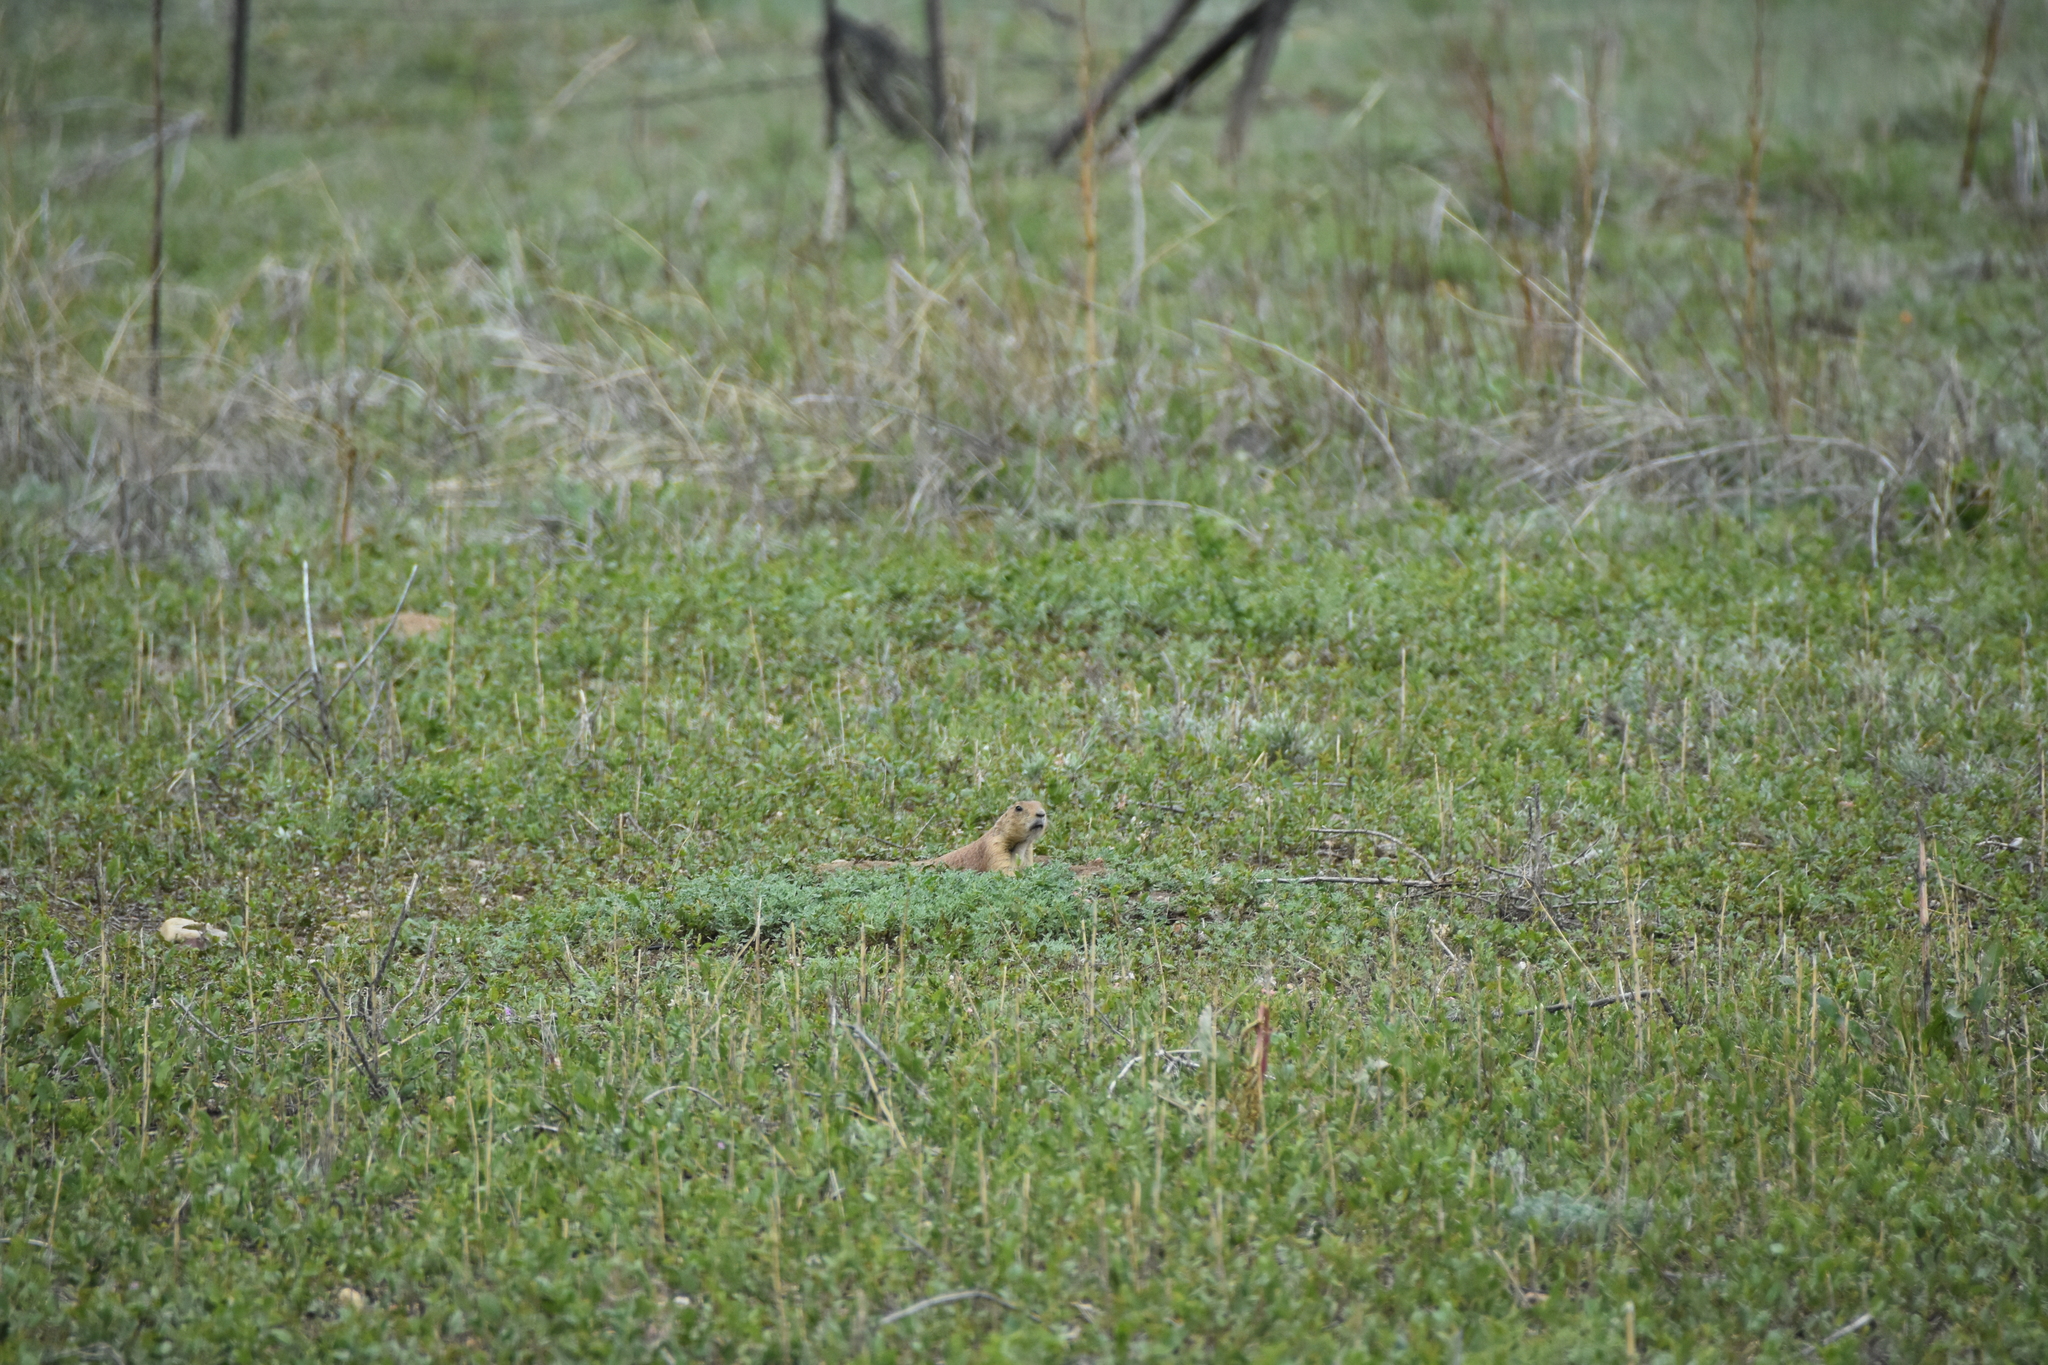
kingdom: Animalia
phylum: Chordata
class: Mammalia
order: Rodentia
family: Sciuridae
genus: Cynomys
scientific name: Cynomys ludovicianus
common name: Black-tailed prairie dog
